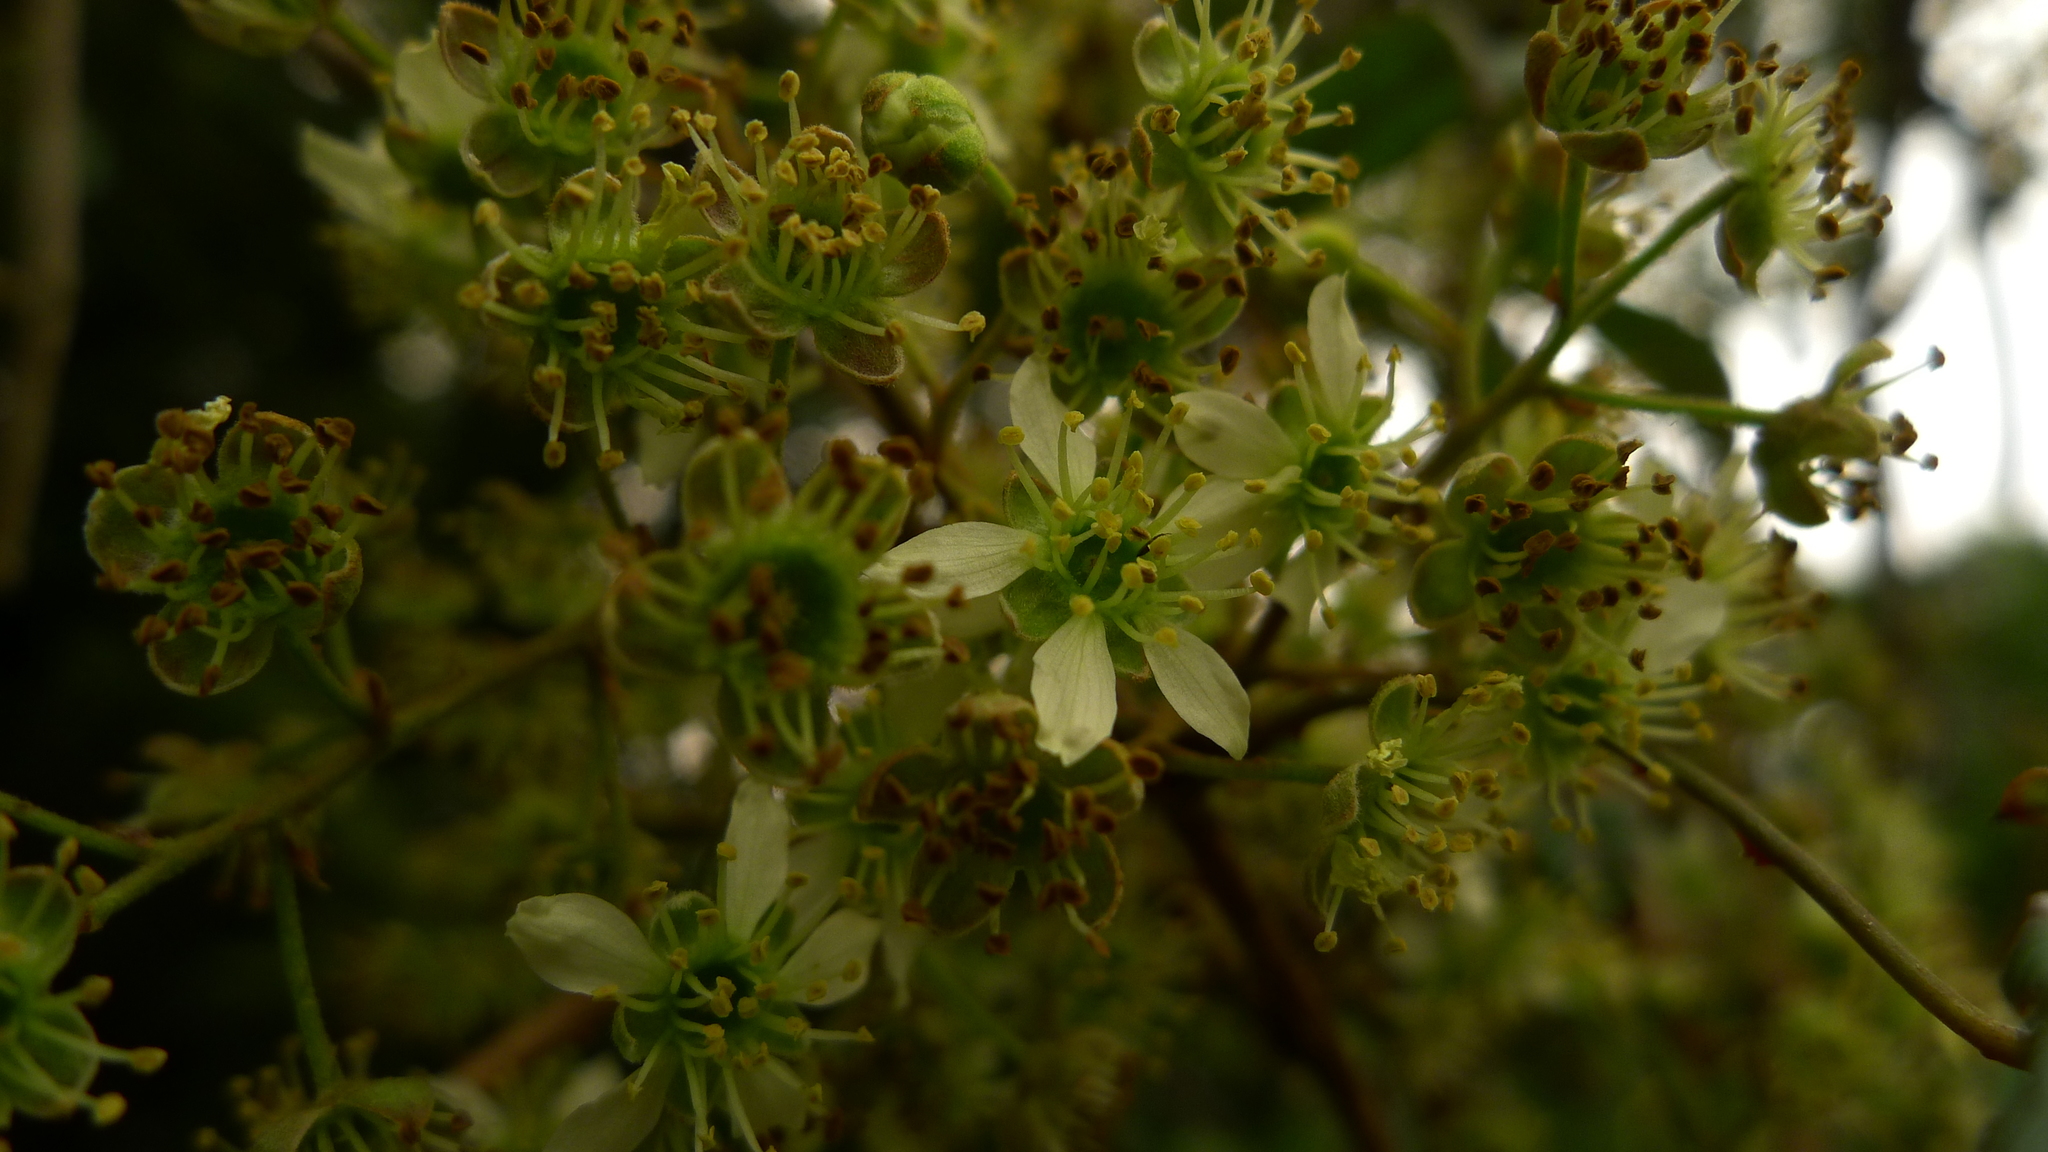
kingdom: Plantae
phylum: Tracheophyta
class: Magnoliopsida
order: Rosales
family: Rosaceae
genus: Rubus
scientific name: Rubus cissoides
